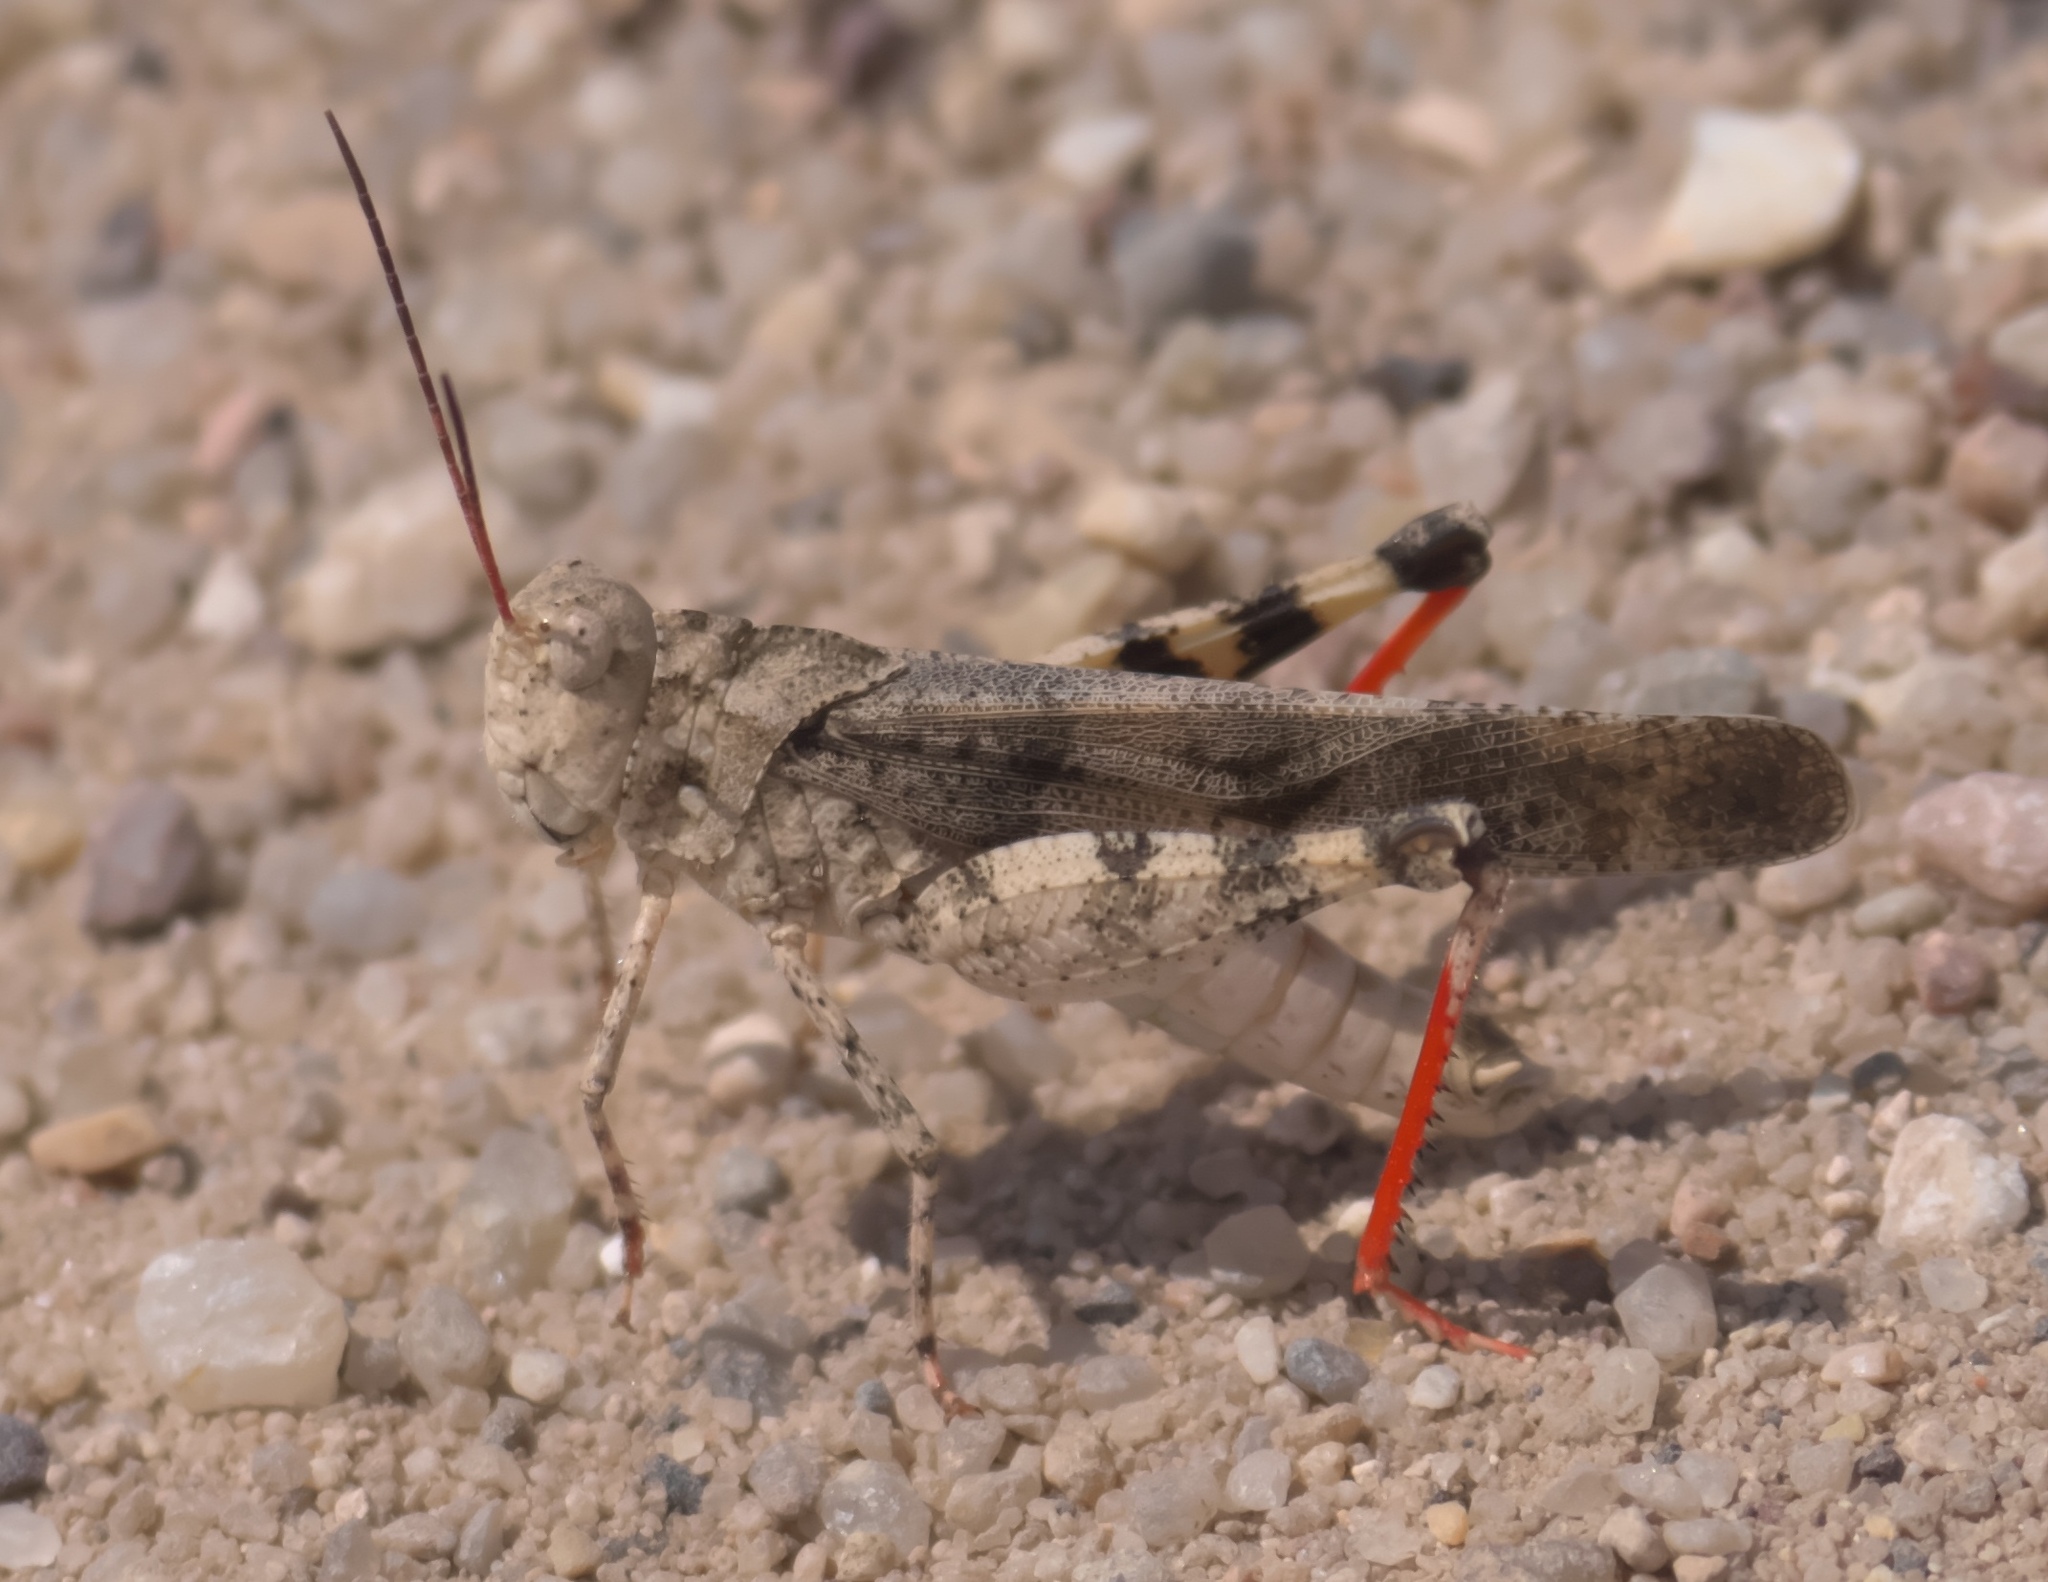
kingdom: Animalia
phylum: Arthropoda
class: Insecta
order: Orthoptera
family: Acrididae
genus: Spharagemon
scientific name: Spharagemon collare
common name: Mottled sand grasshopper
